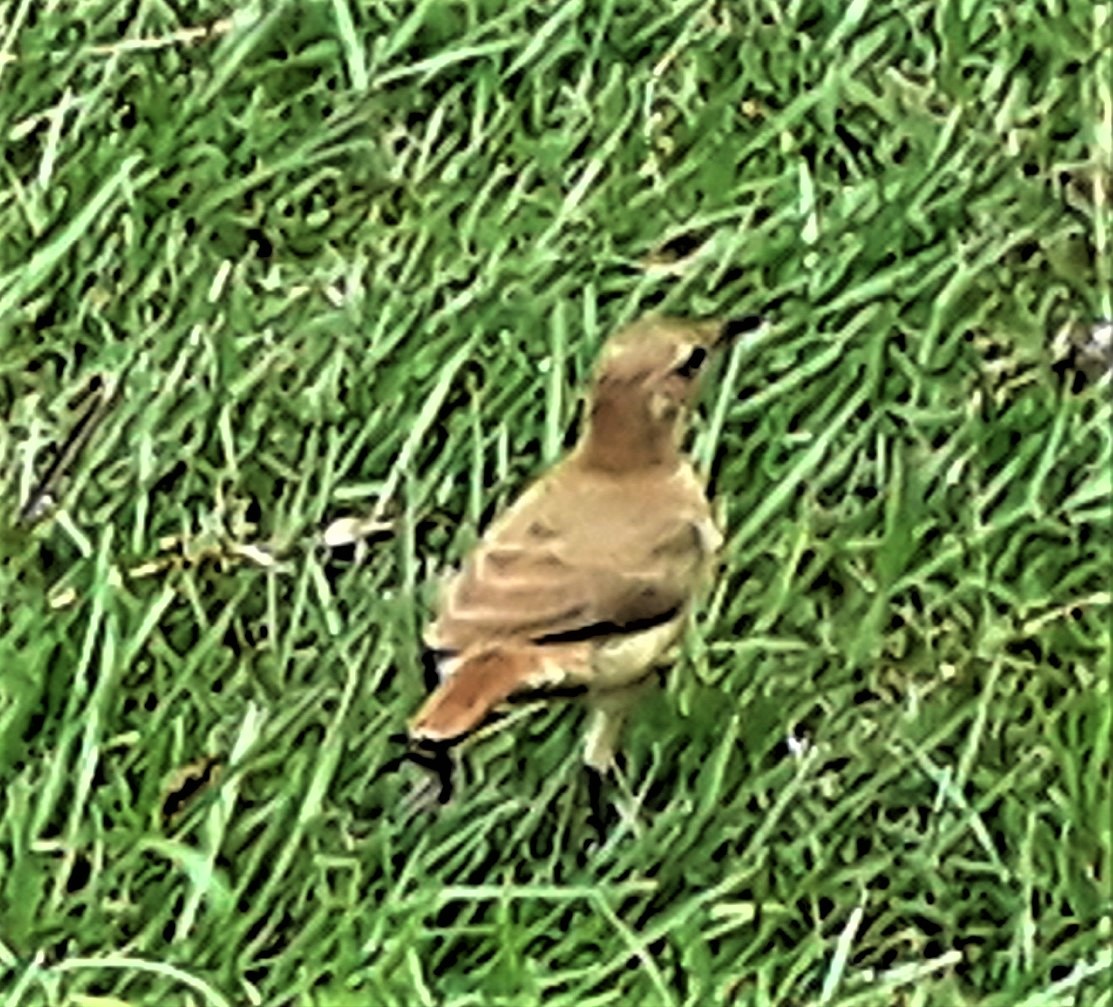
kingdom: Animalia
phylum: Chordata
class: Aves
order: Passeriformes
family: Furnariidae
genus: Furnarius
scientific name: Furnarius rufus
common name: Rufous hornero
